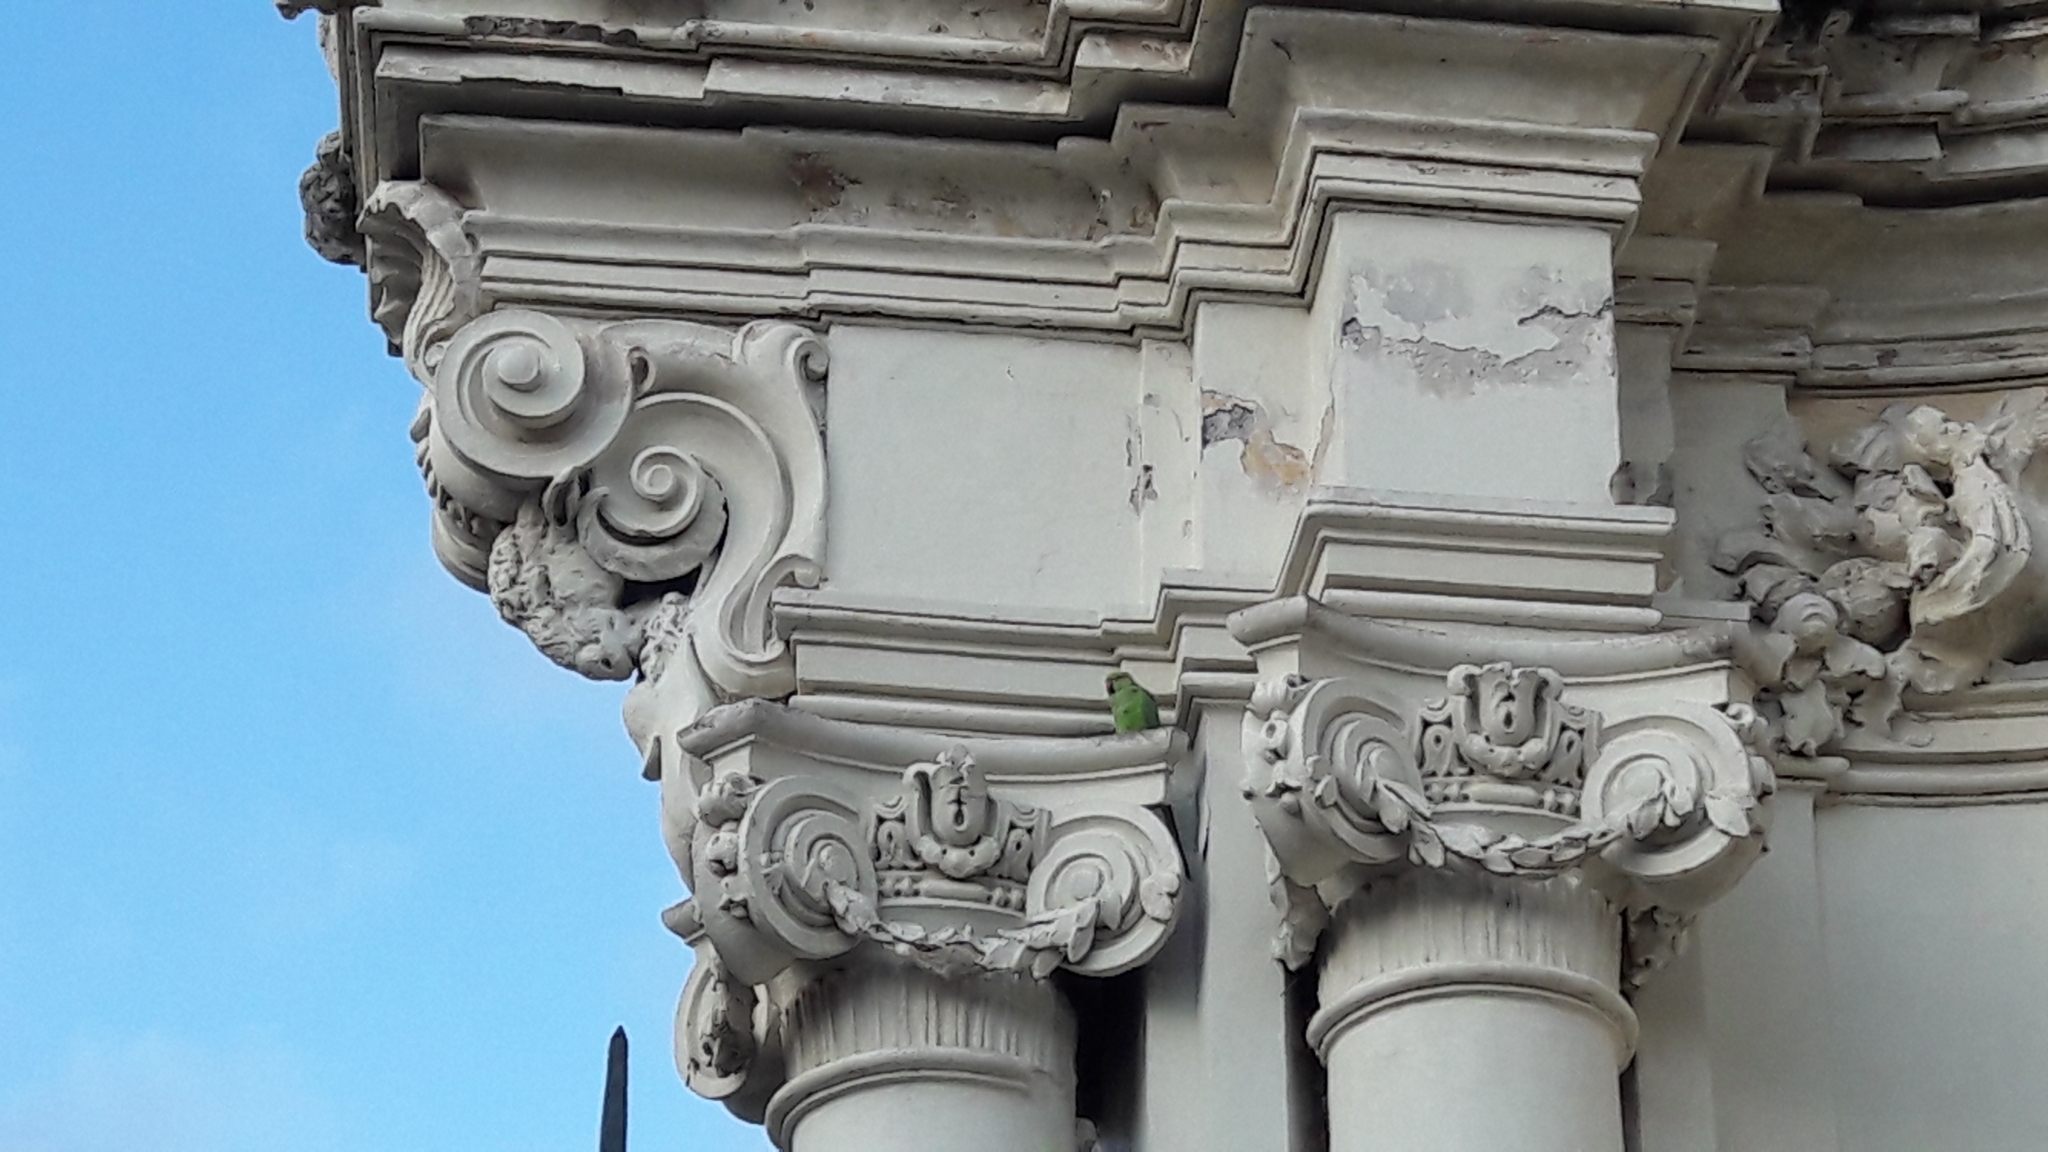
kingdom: Animalia
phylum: Chordata
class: Aves
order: Psittaciformes
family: Psittacidae
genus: Psittacula
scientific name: Psittacula krameri
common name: Rose-ringed parakeet
